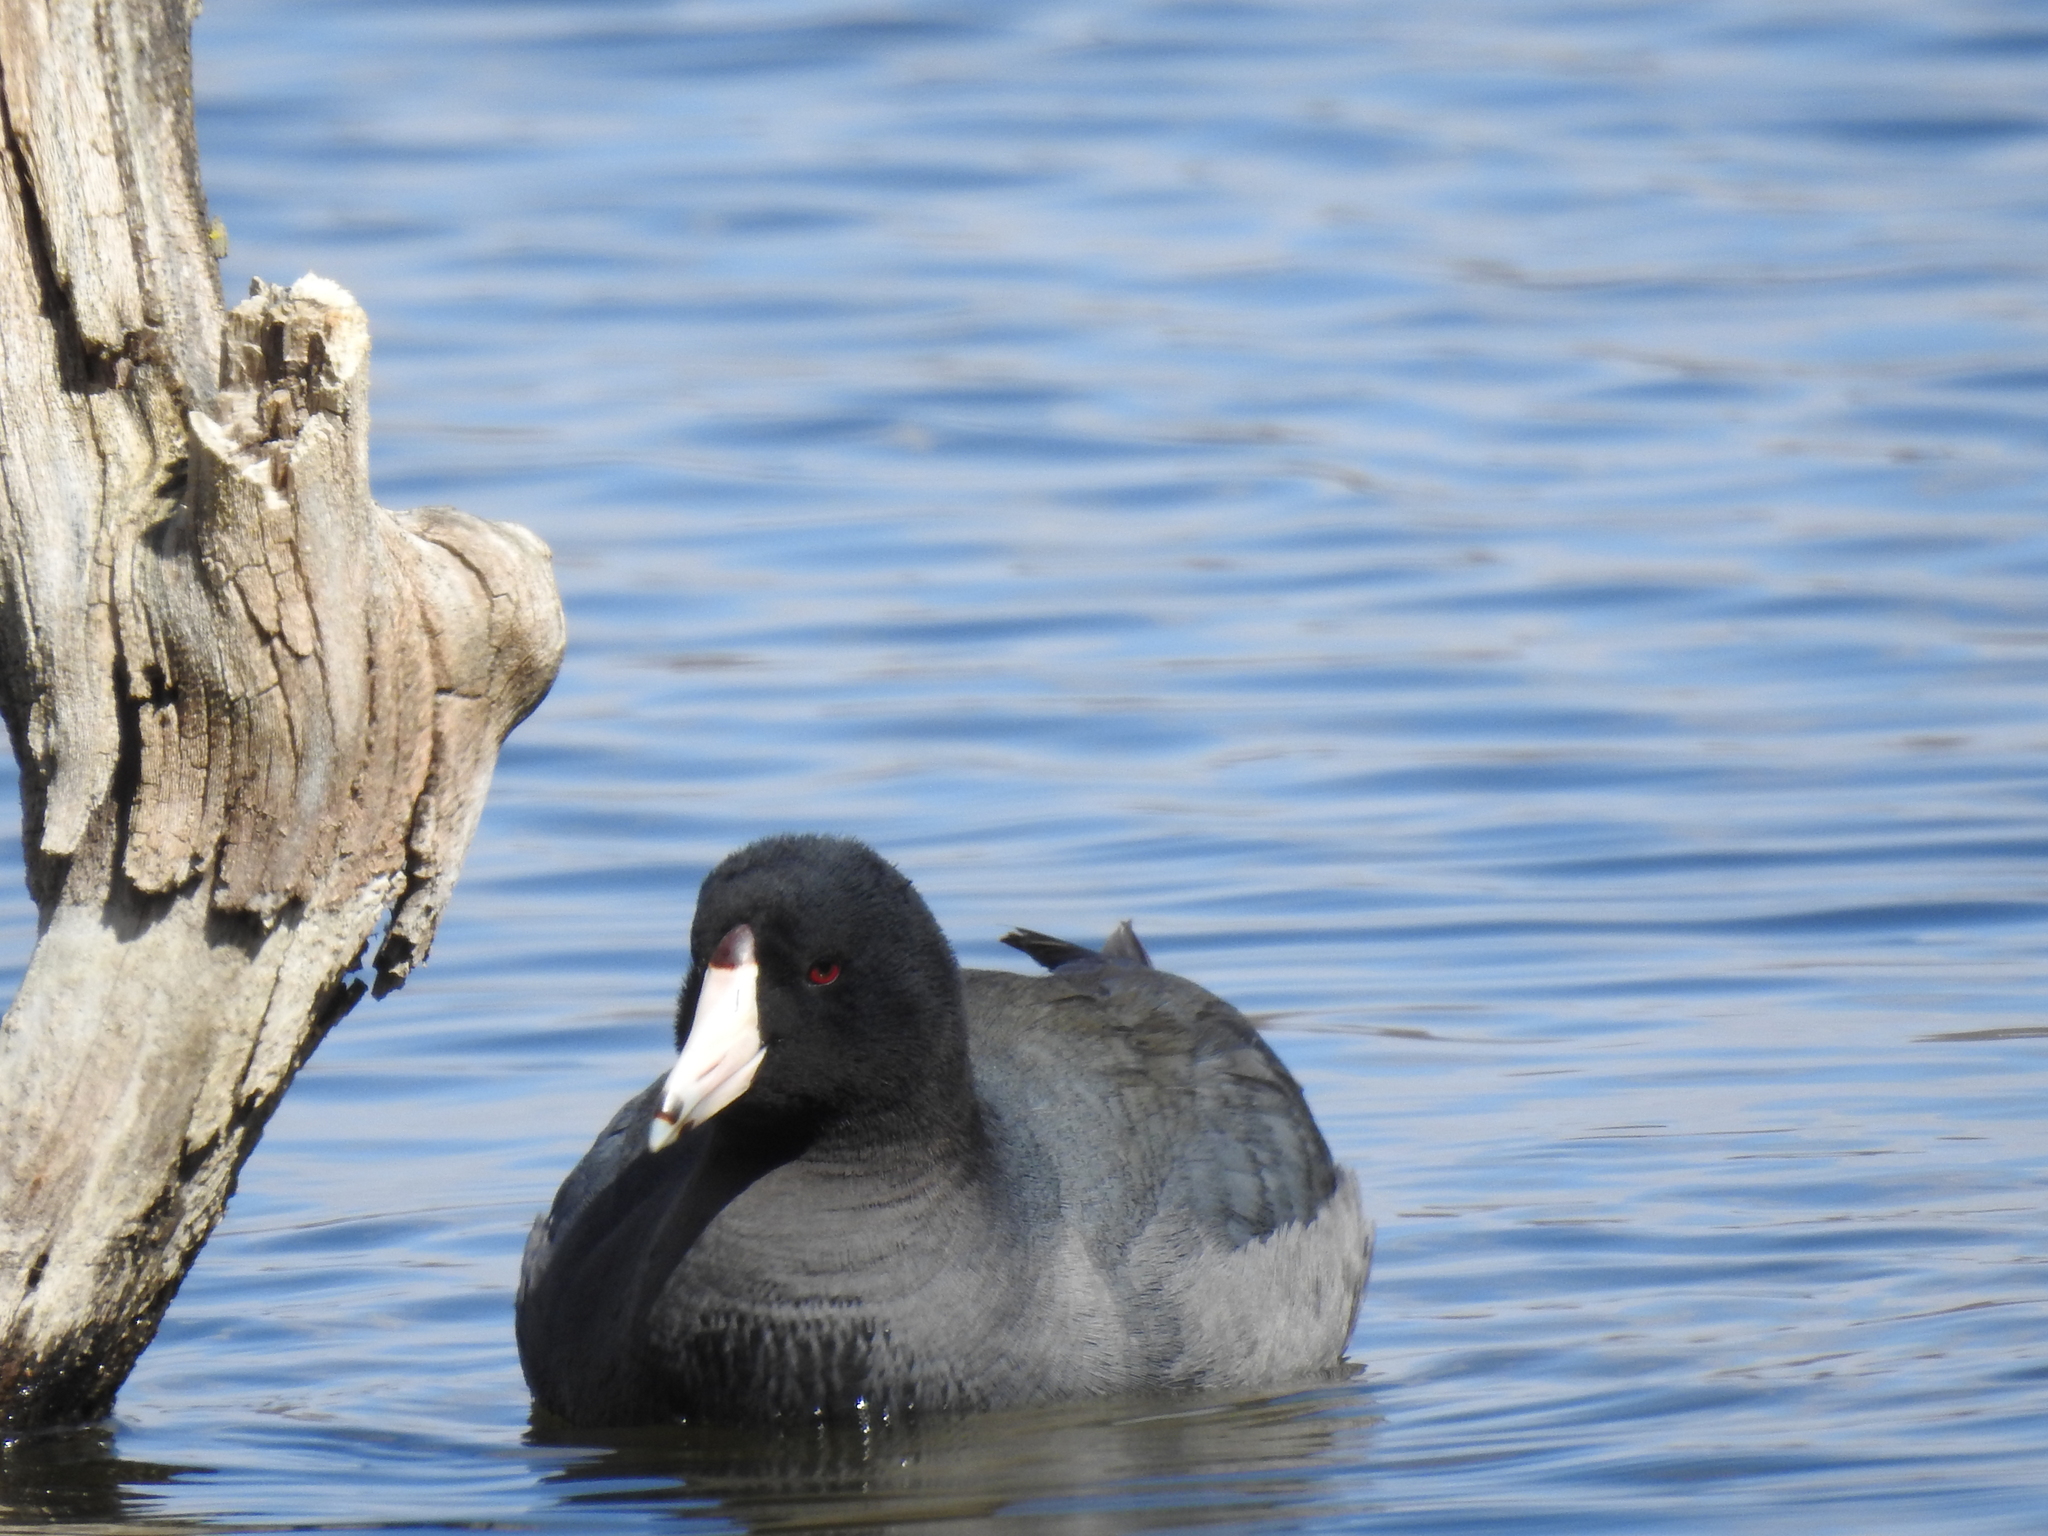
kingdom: Animalia
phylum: Chordata
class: Aves
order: Gruiformes
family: Rallidae
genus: Fulica
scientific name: Fulica americana
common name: American coot
